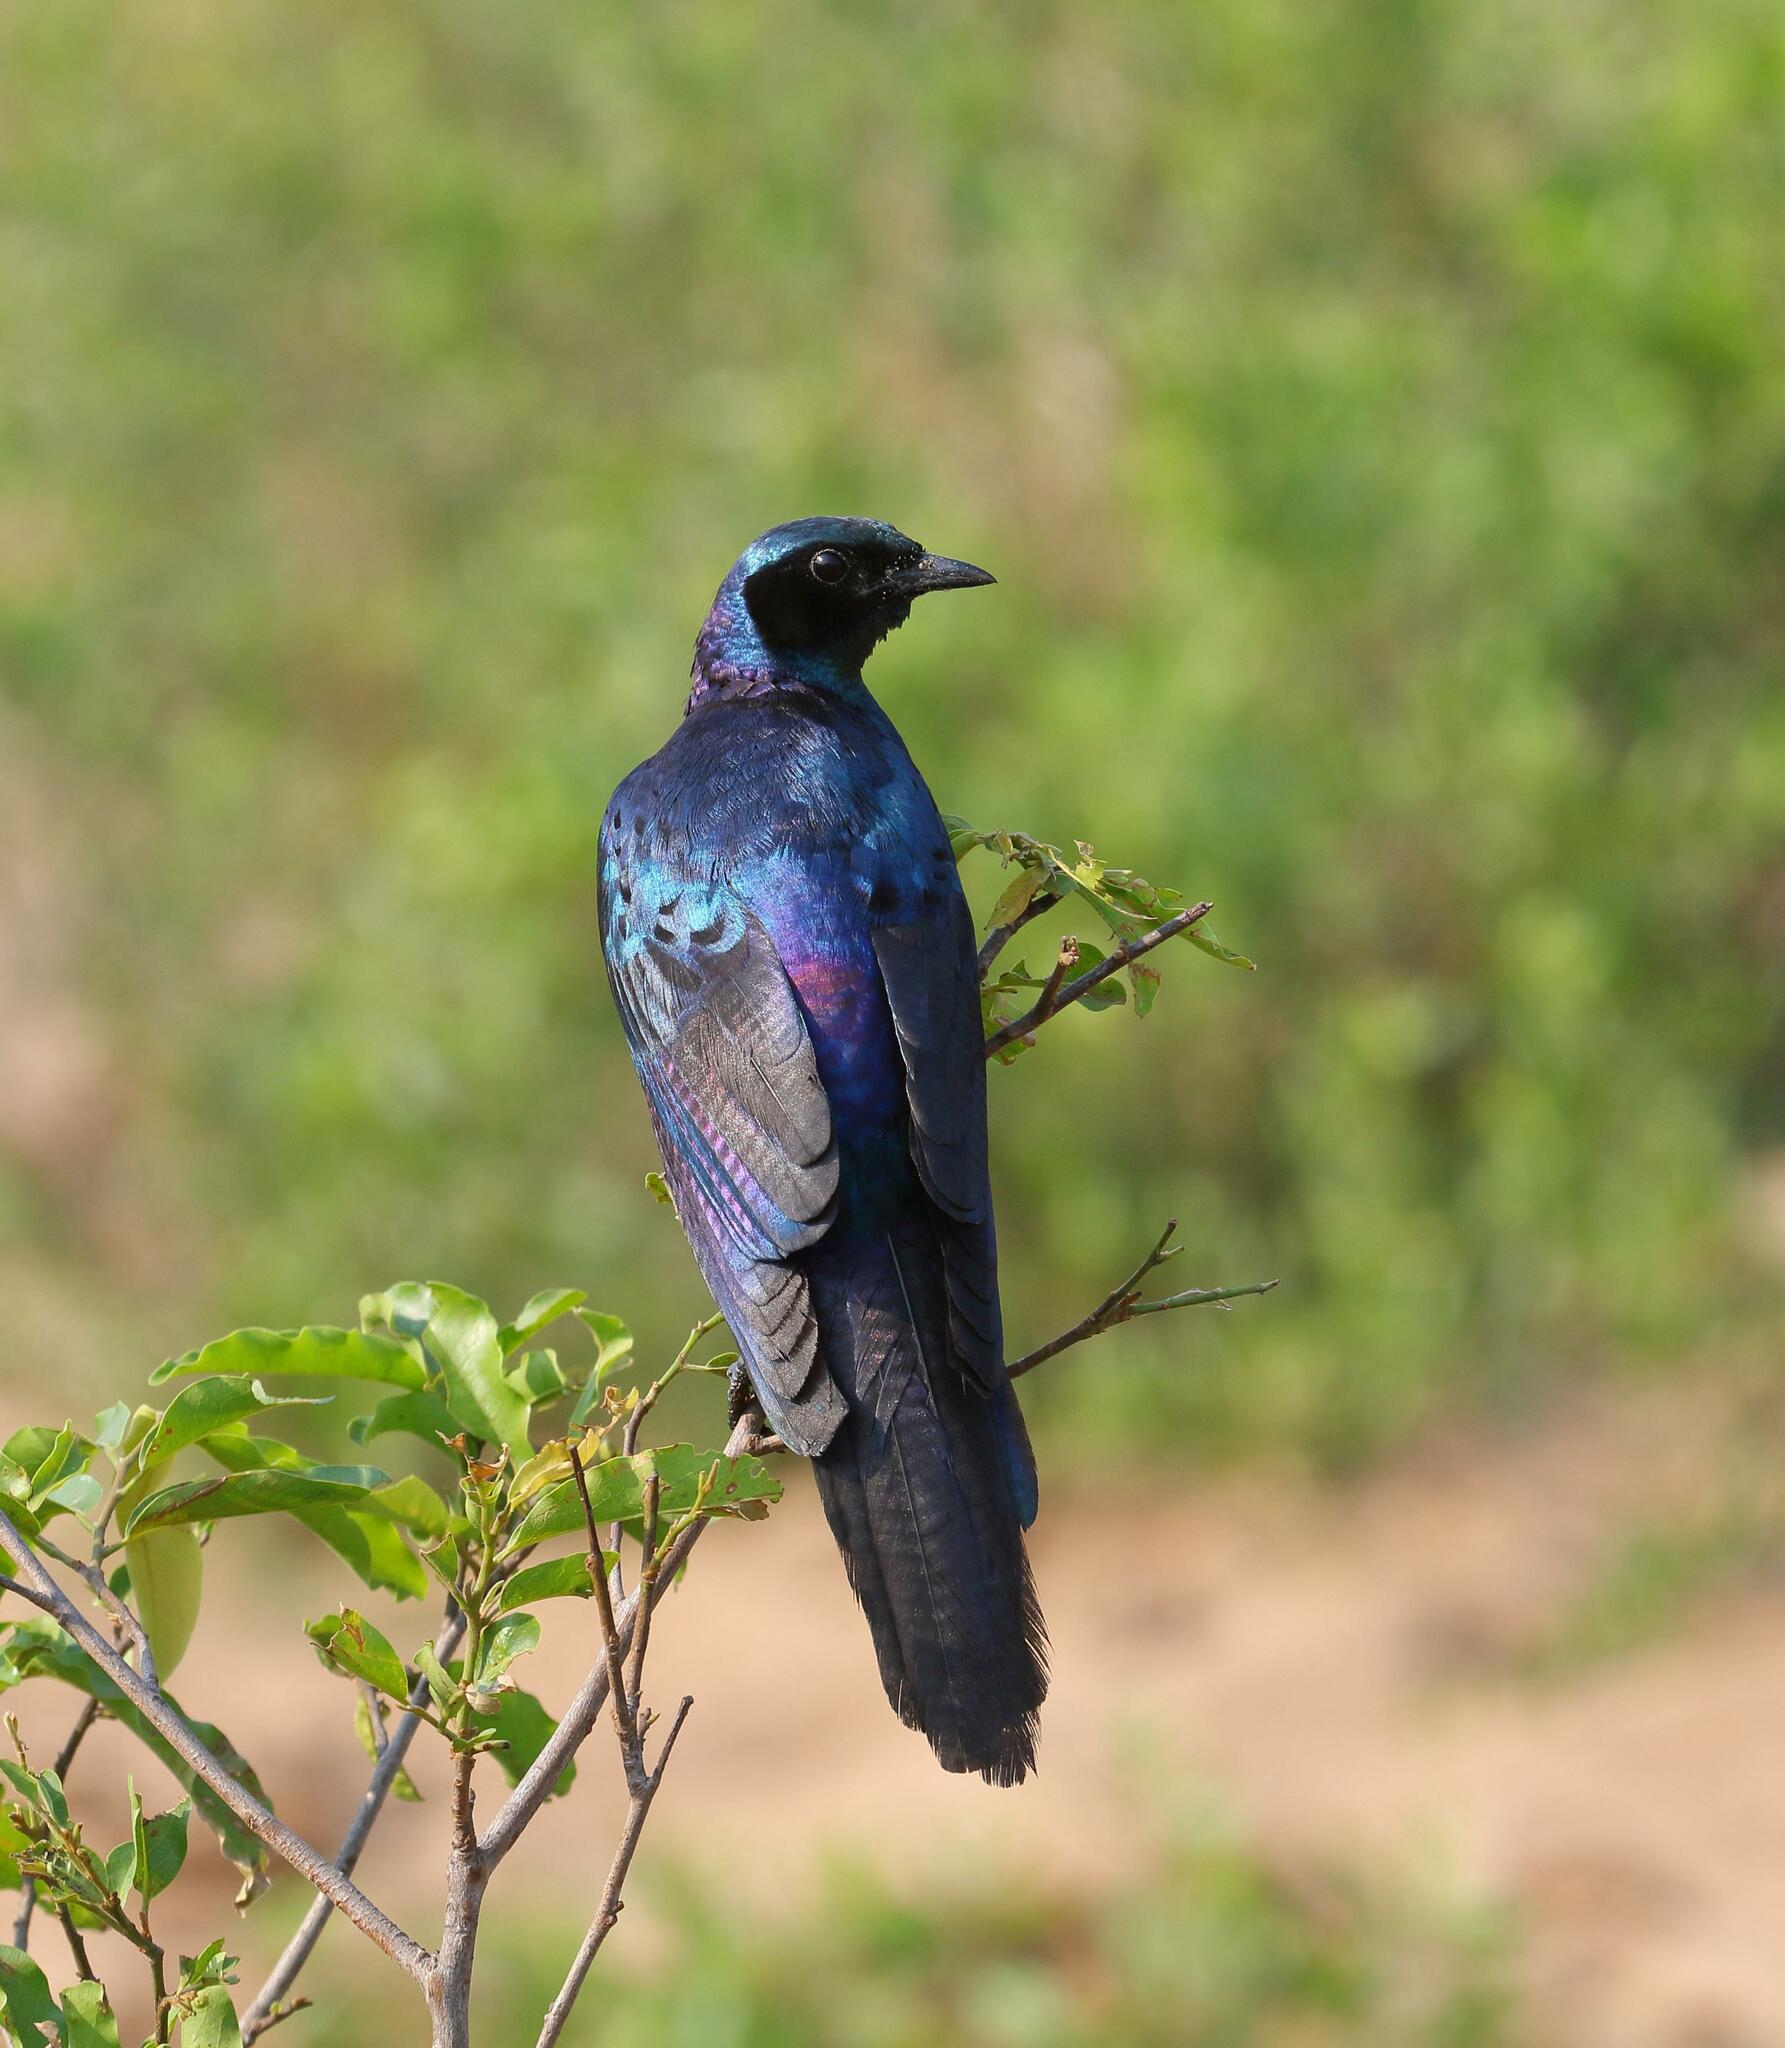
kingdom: Animalia
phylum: Chordata
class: Aves
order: Passeriformes
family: Sturnidae
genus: Lamprotornis
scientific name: Lamprotornis australis
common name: Burchell's starling
